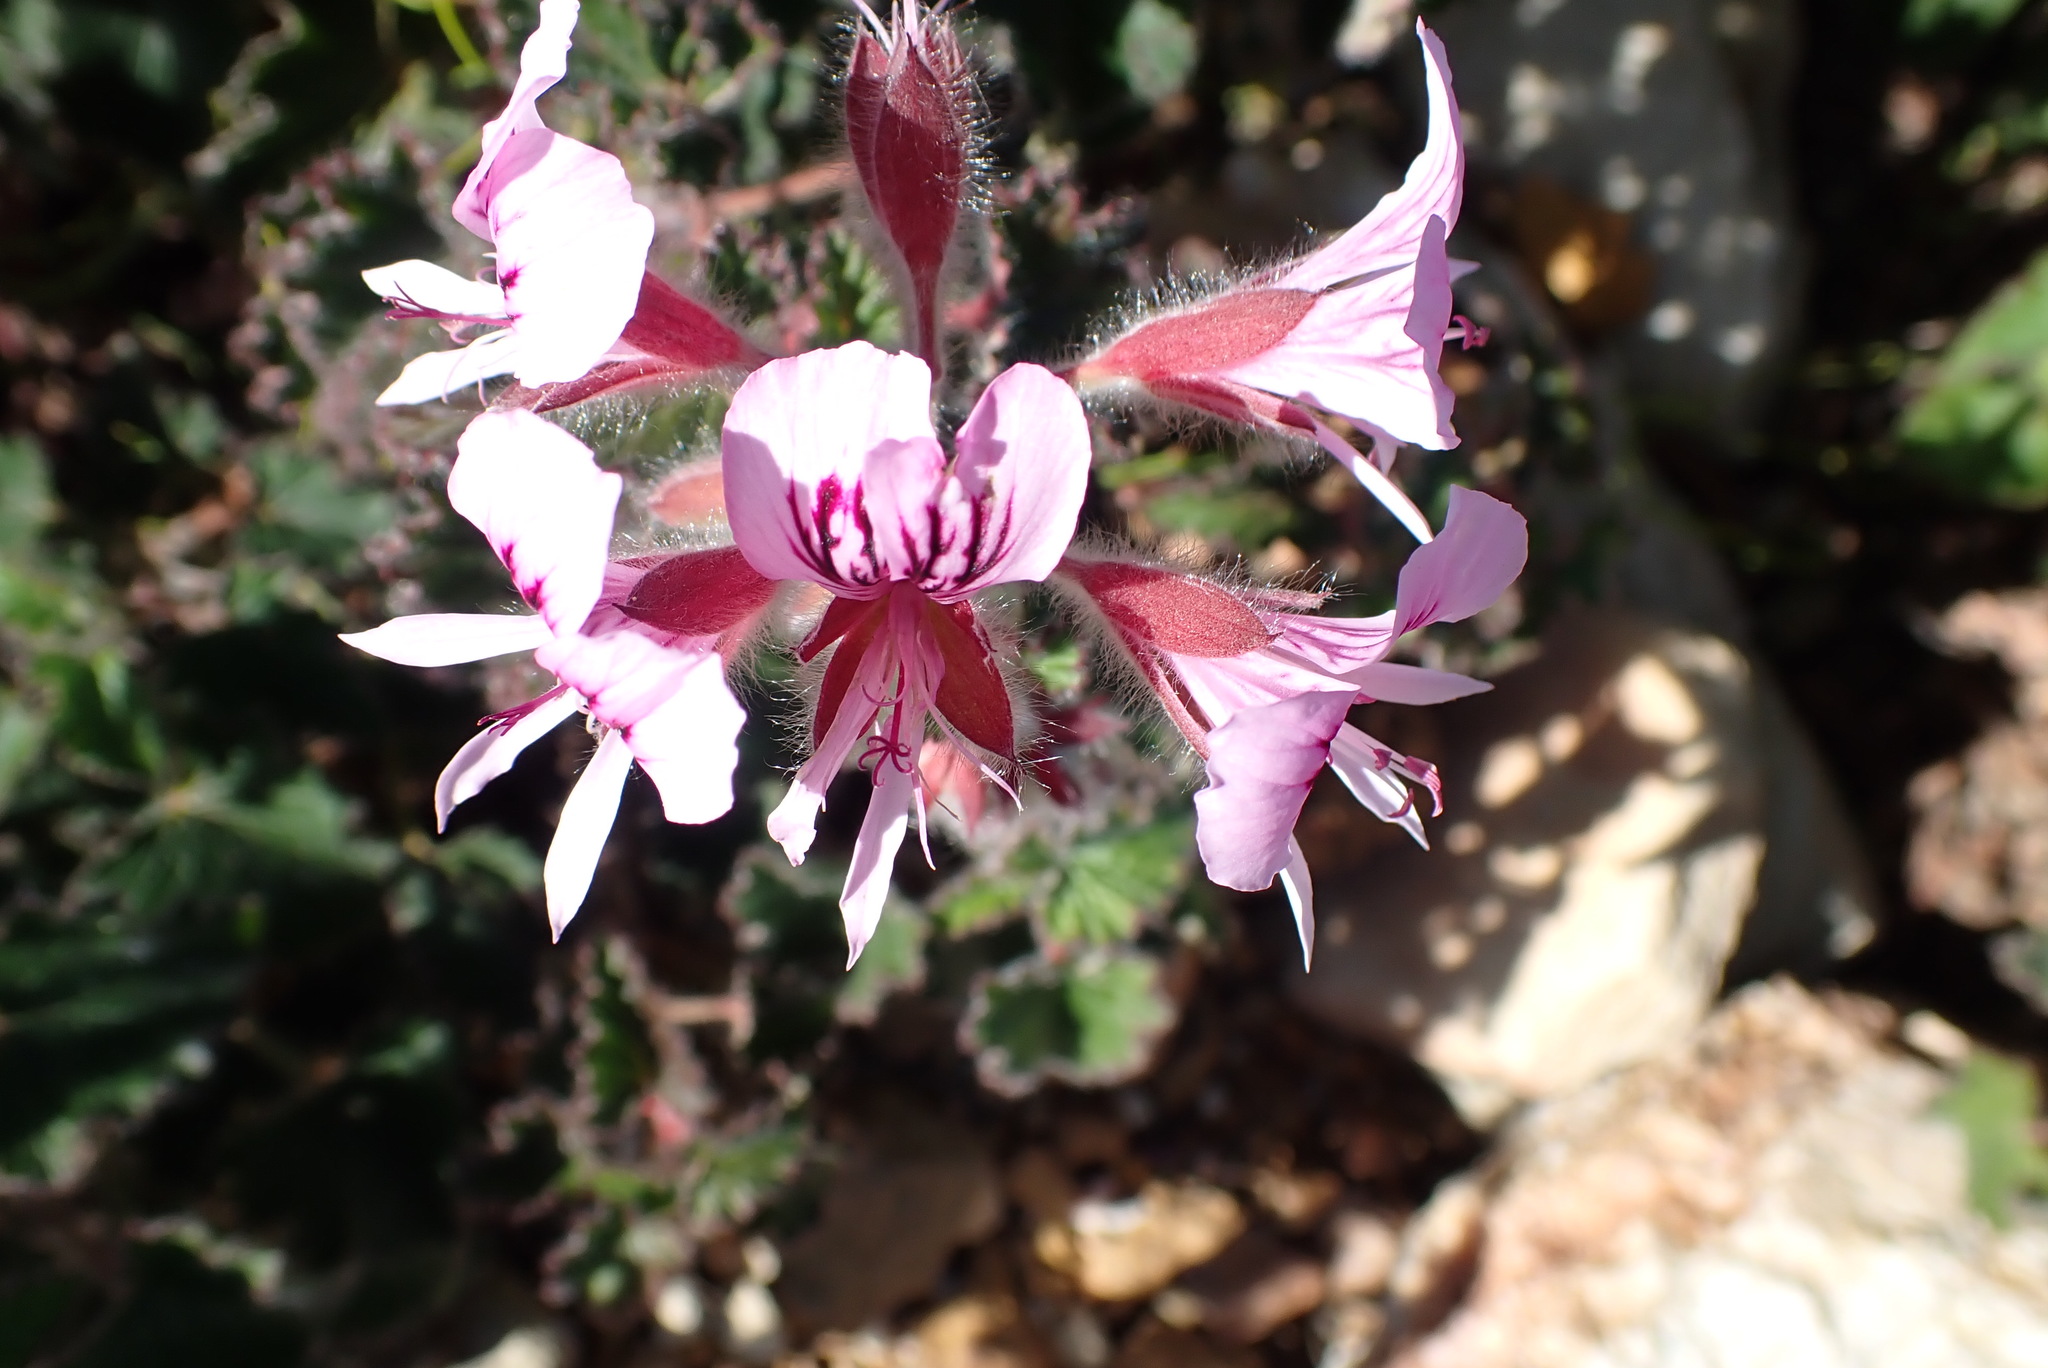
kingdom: Plantae
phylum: Tracheophyta
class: Magnoliopsida
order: Geraniales
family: Geraniaceae
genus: Pelargonium
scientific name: Pelargonium cordifolium
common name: Heart-leaf pelargonium
